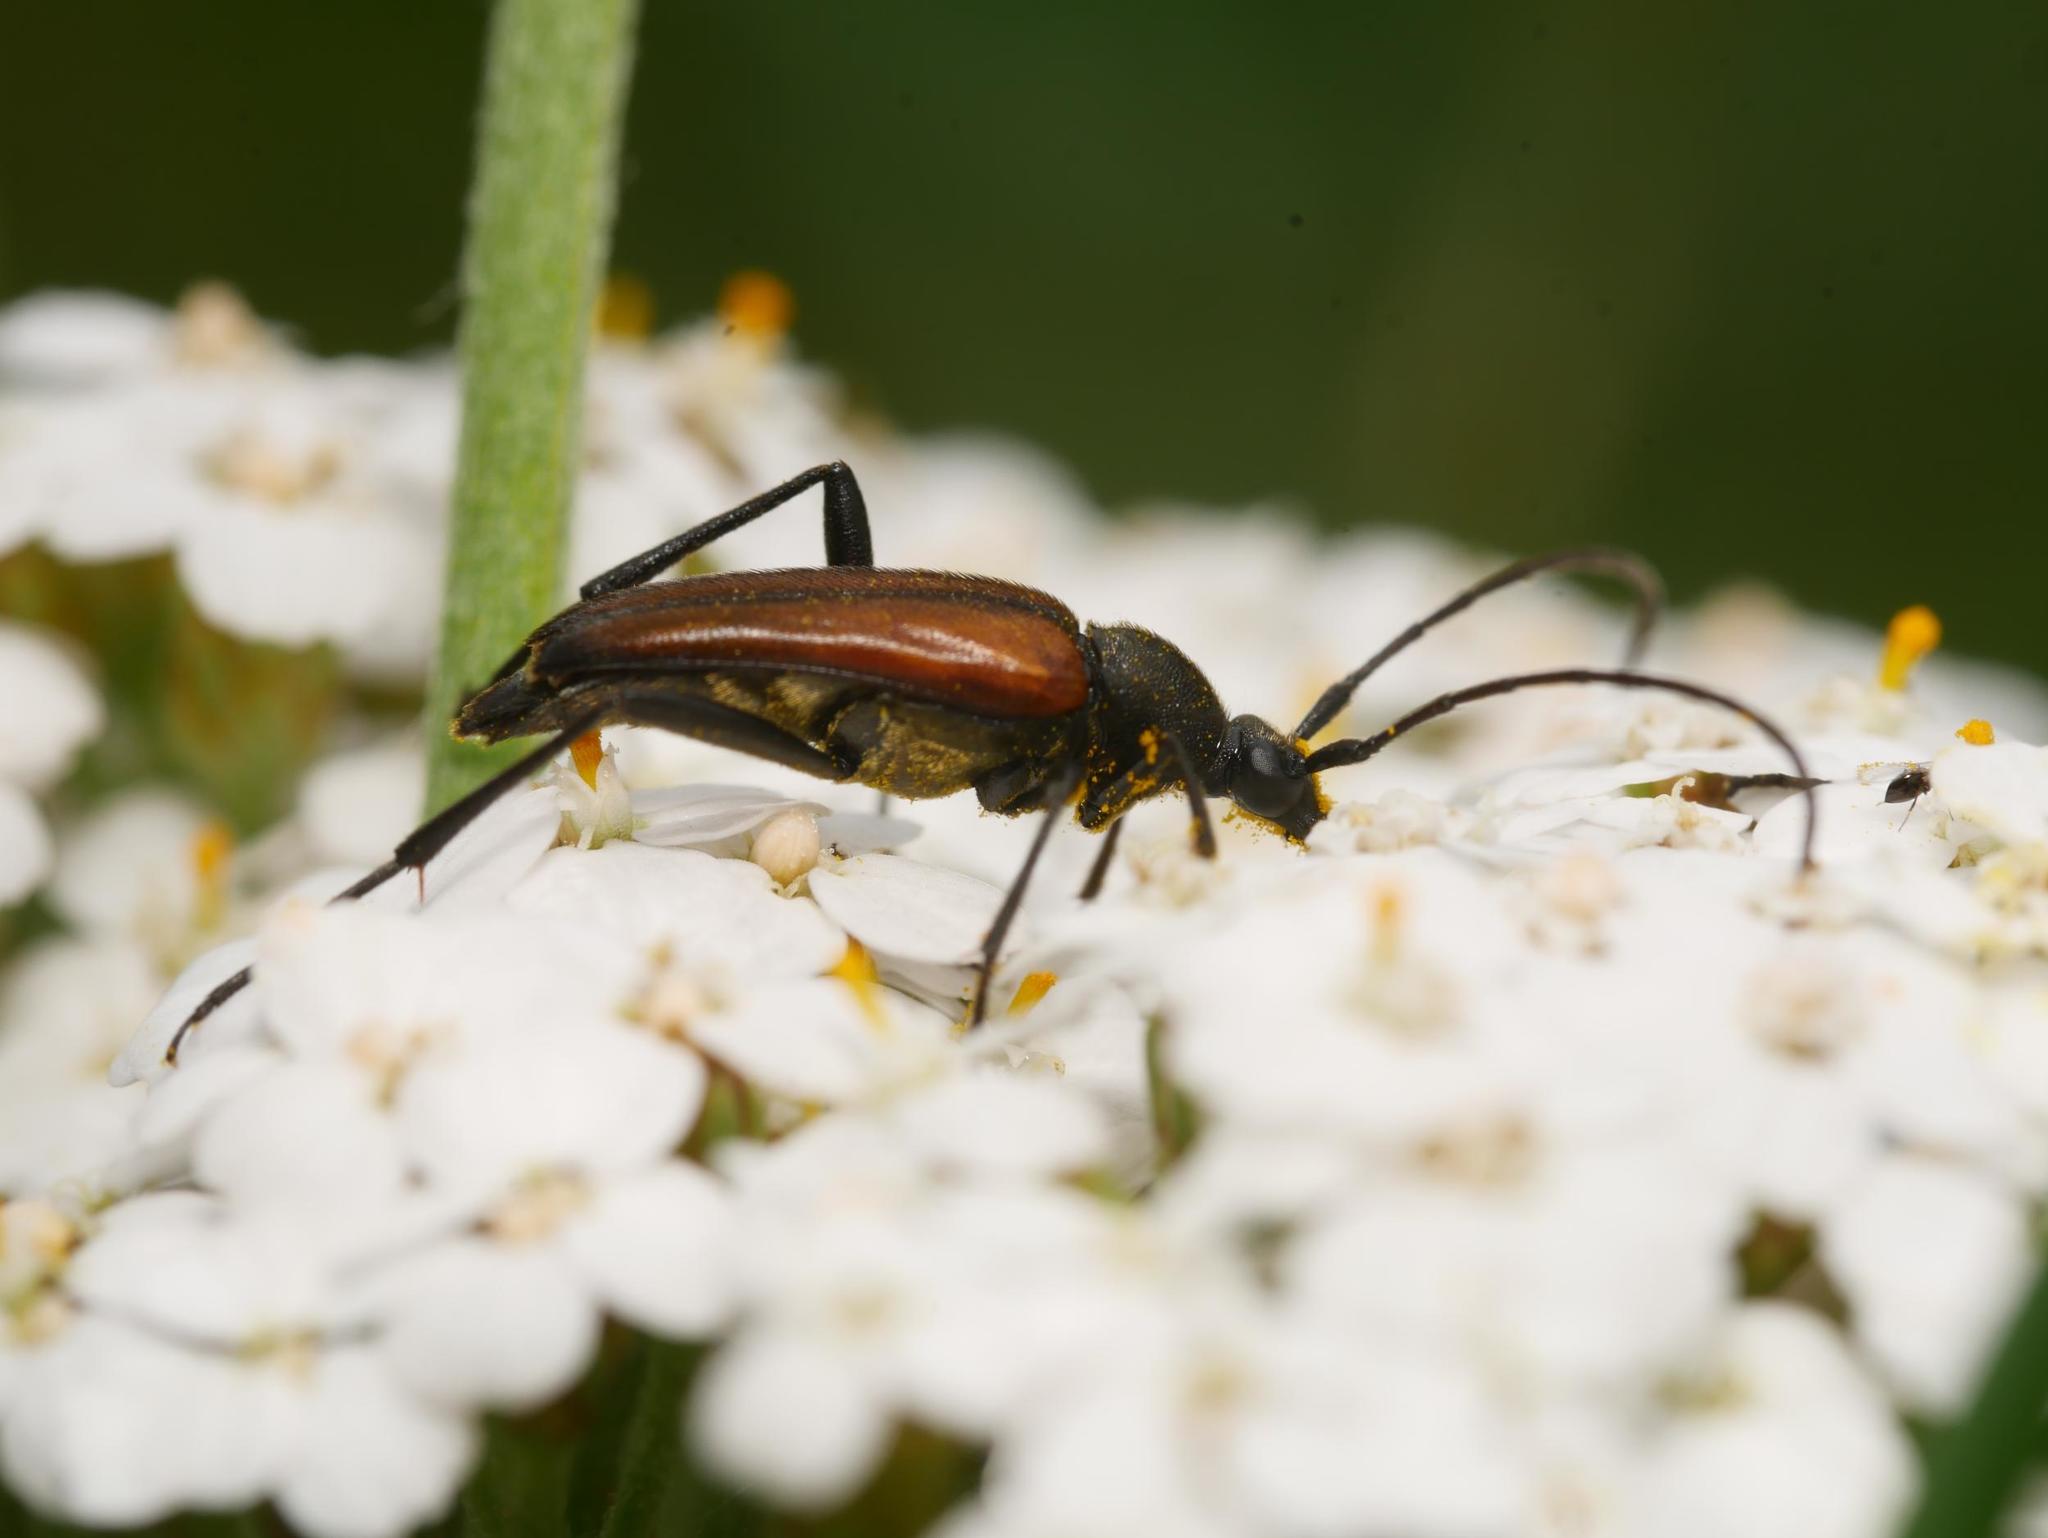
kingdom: Animalia
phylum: Arthropoda
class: Insecta
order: Coleoptera
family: Cerambycidae
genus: Stenurella
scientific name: Stenurella melanura
